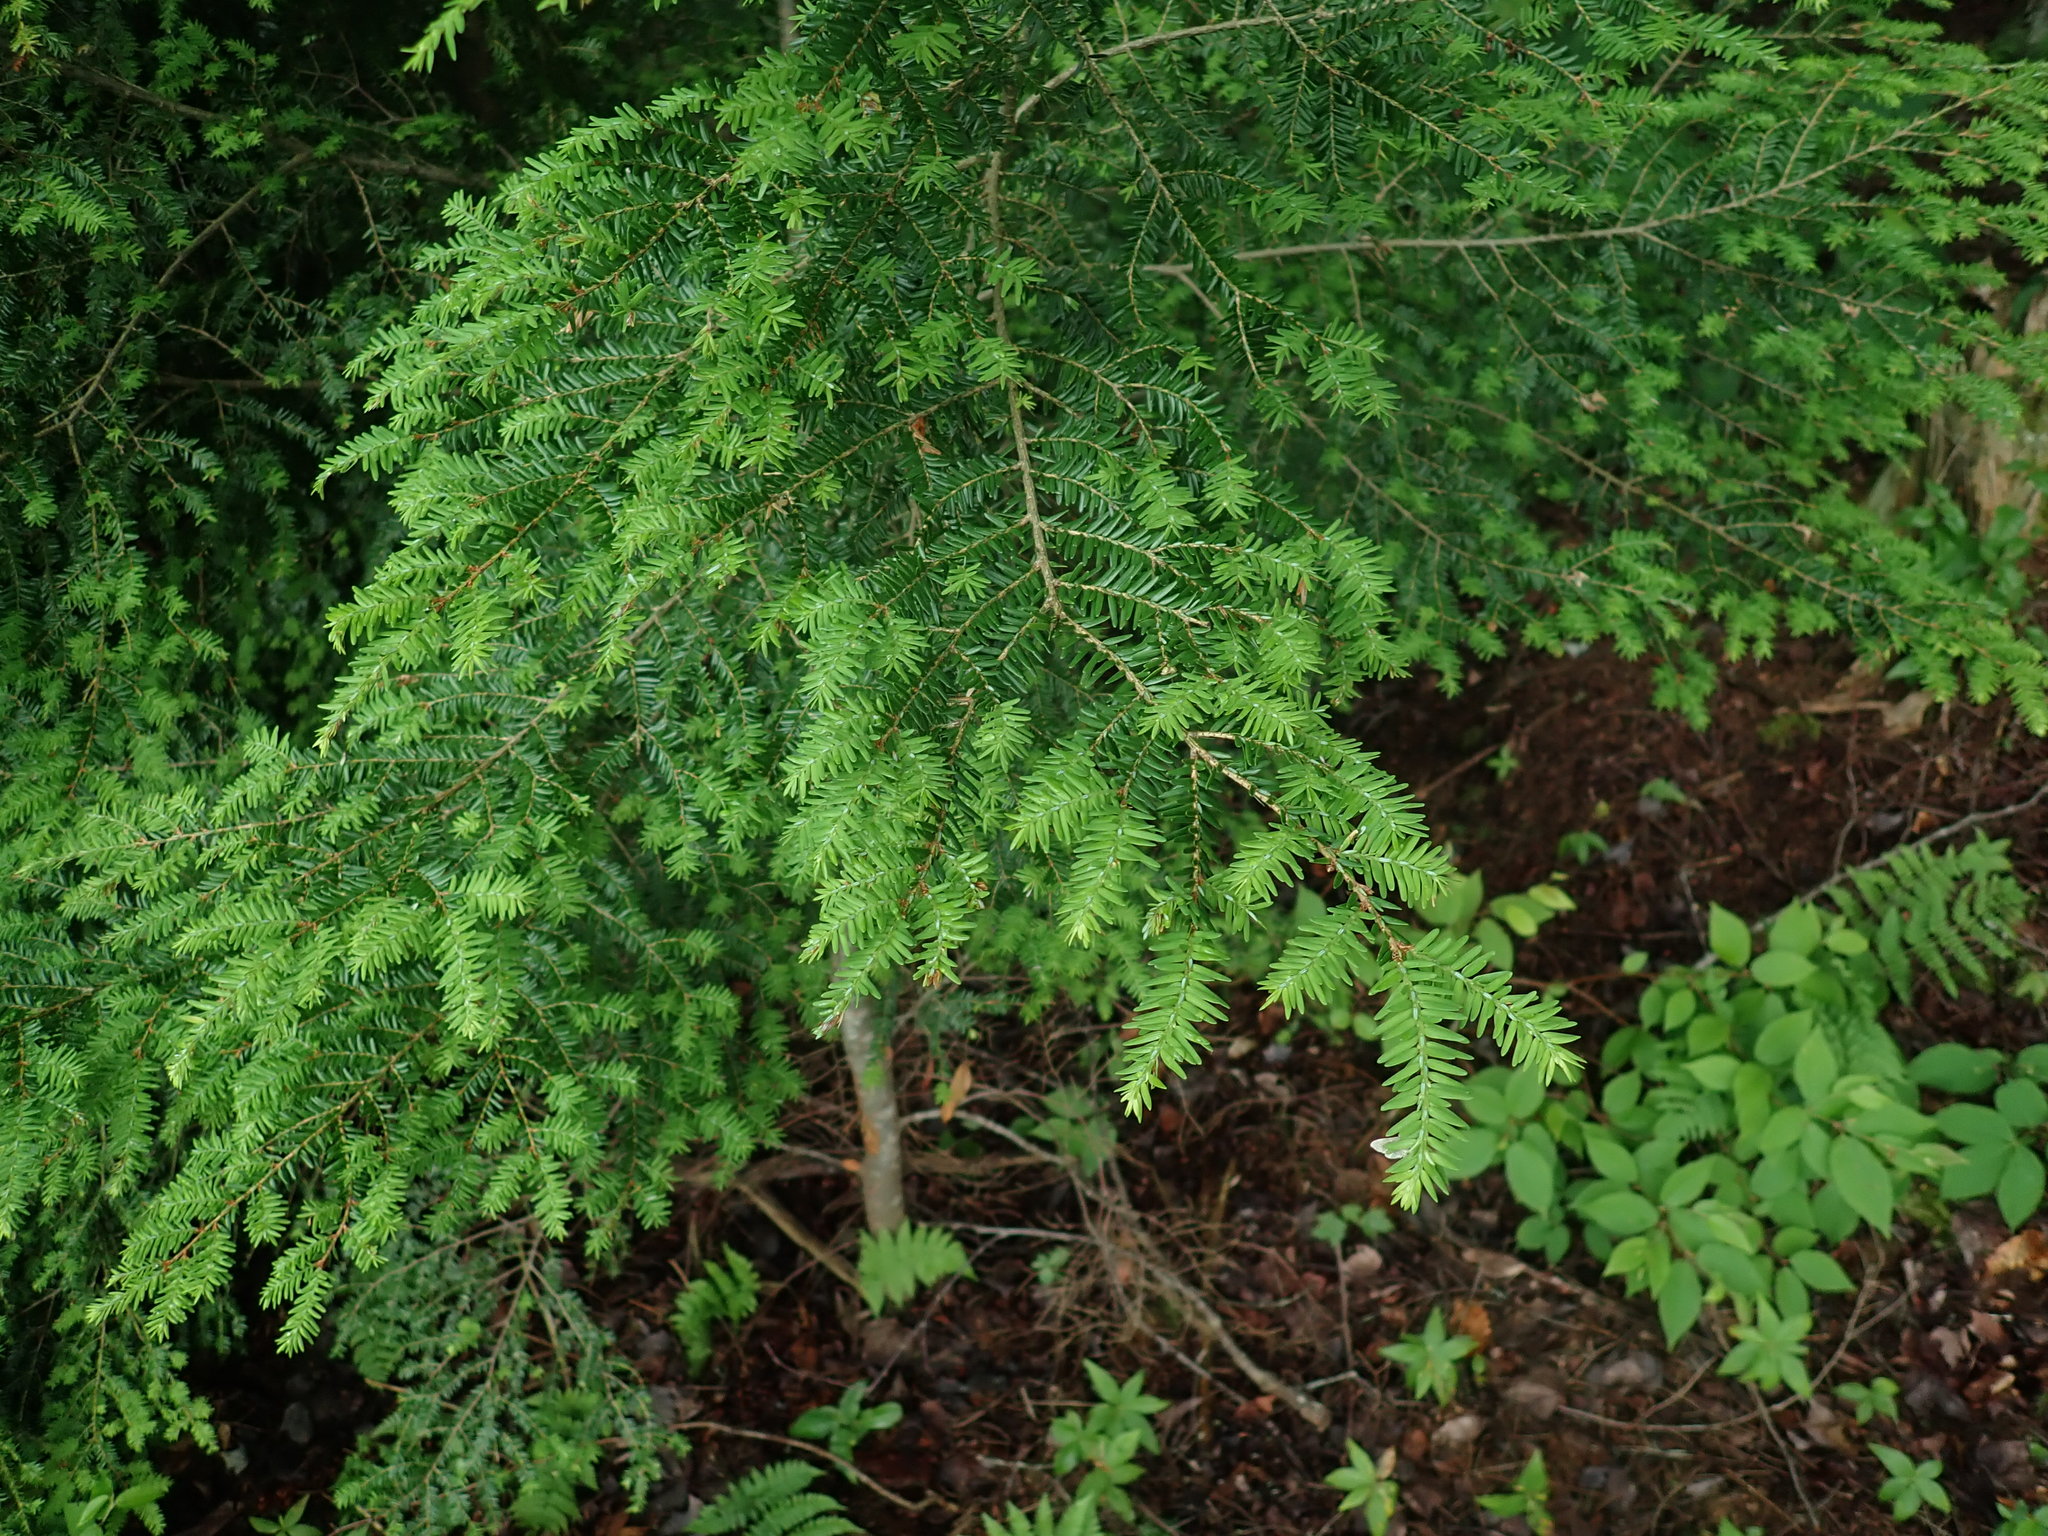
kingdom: Plantae
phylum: Tracheophyta
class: Pinopsida
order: Pinales
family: Pinaceae
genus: Tsuga
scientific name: Tsuga canadensis
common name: Eastern hemlock
